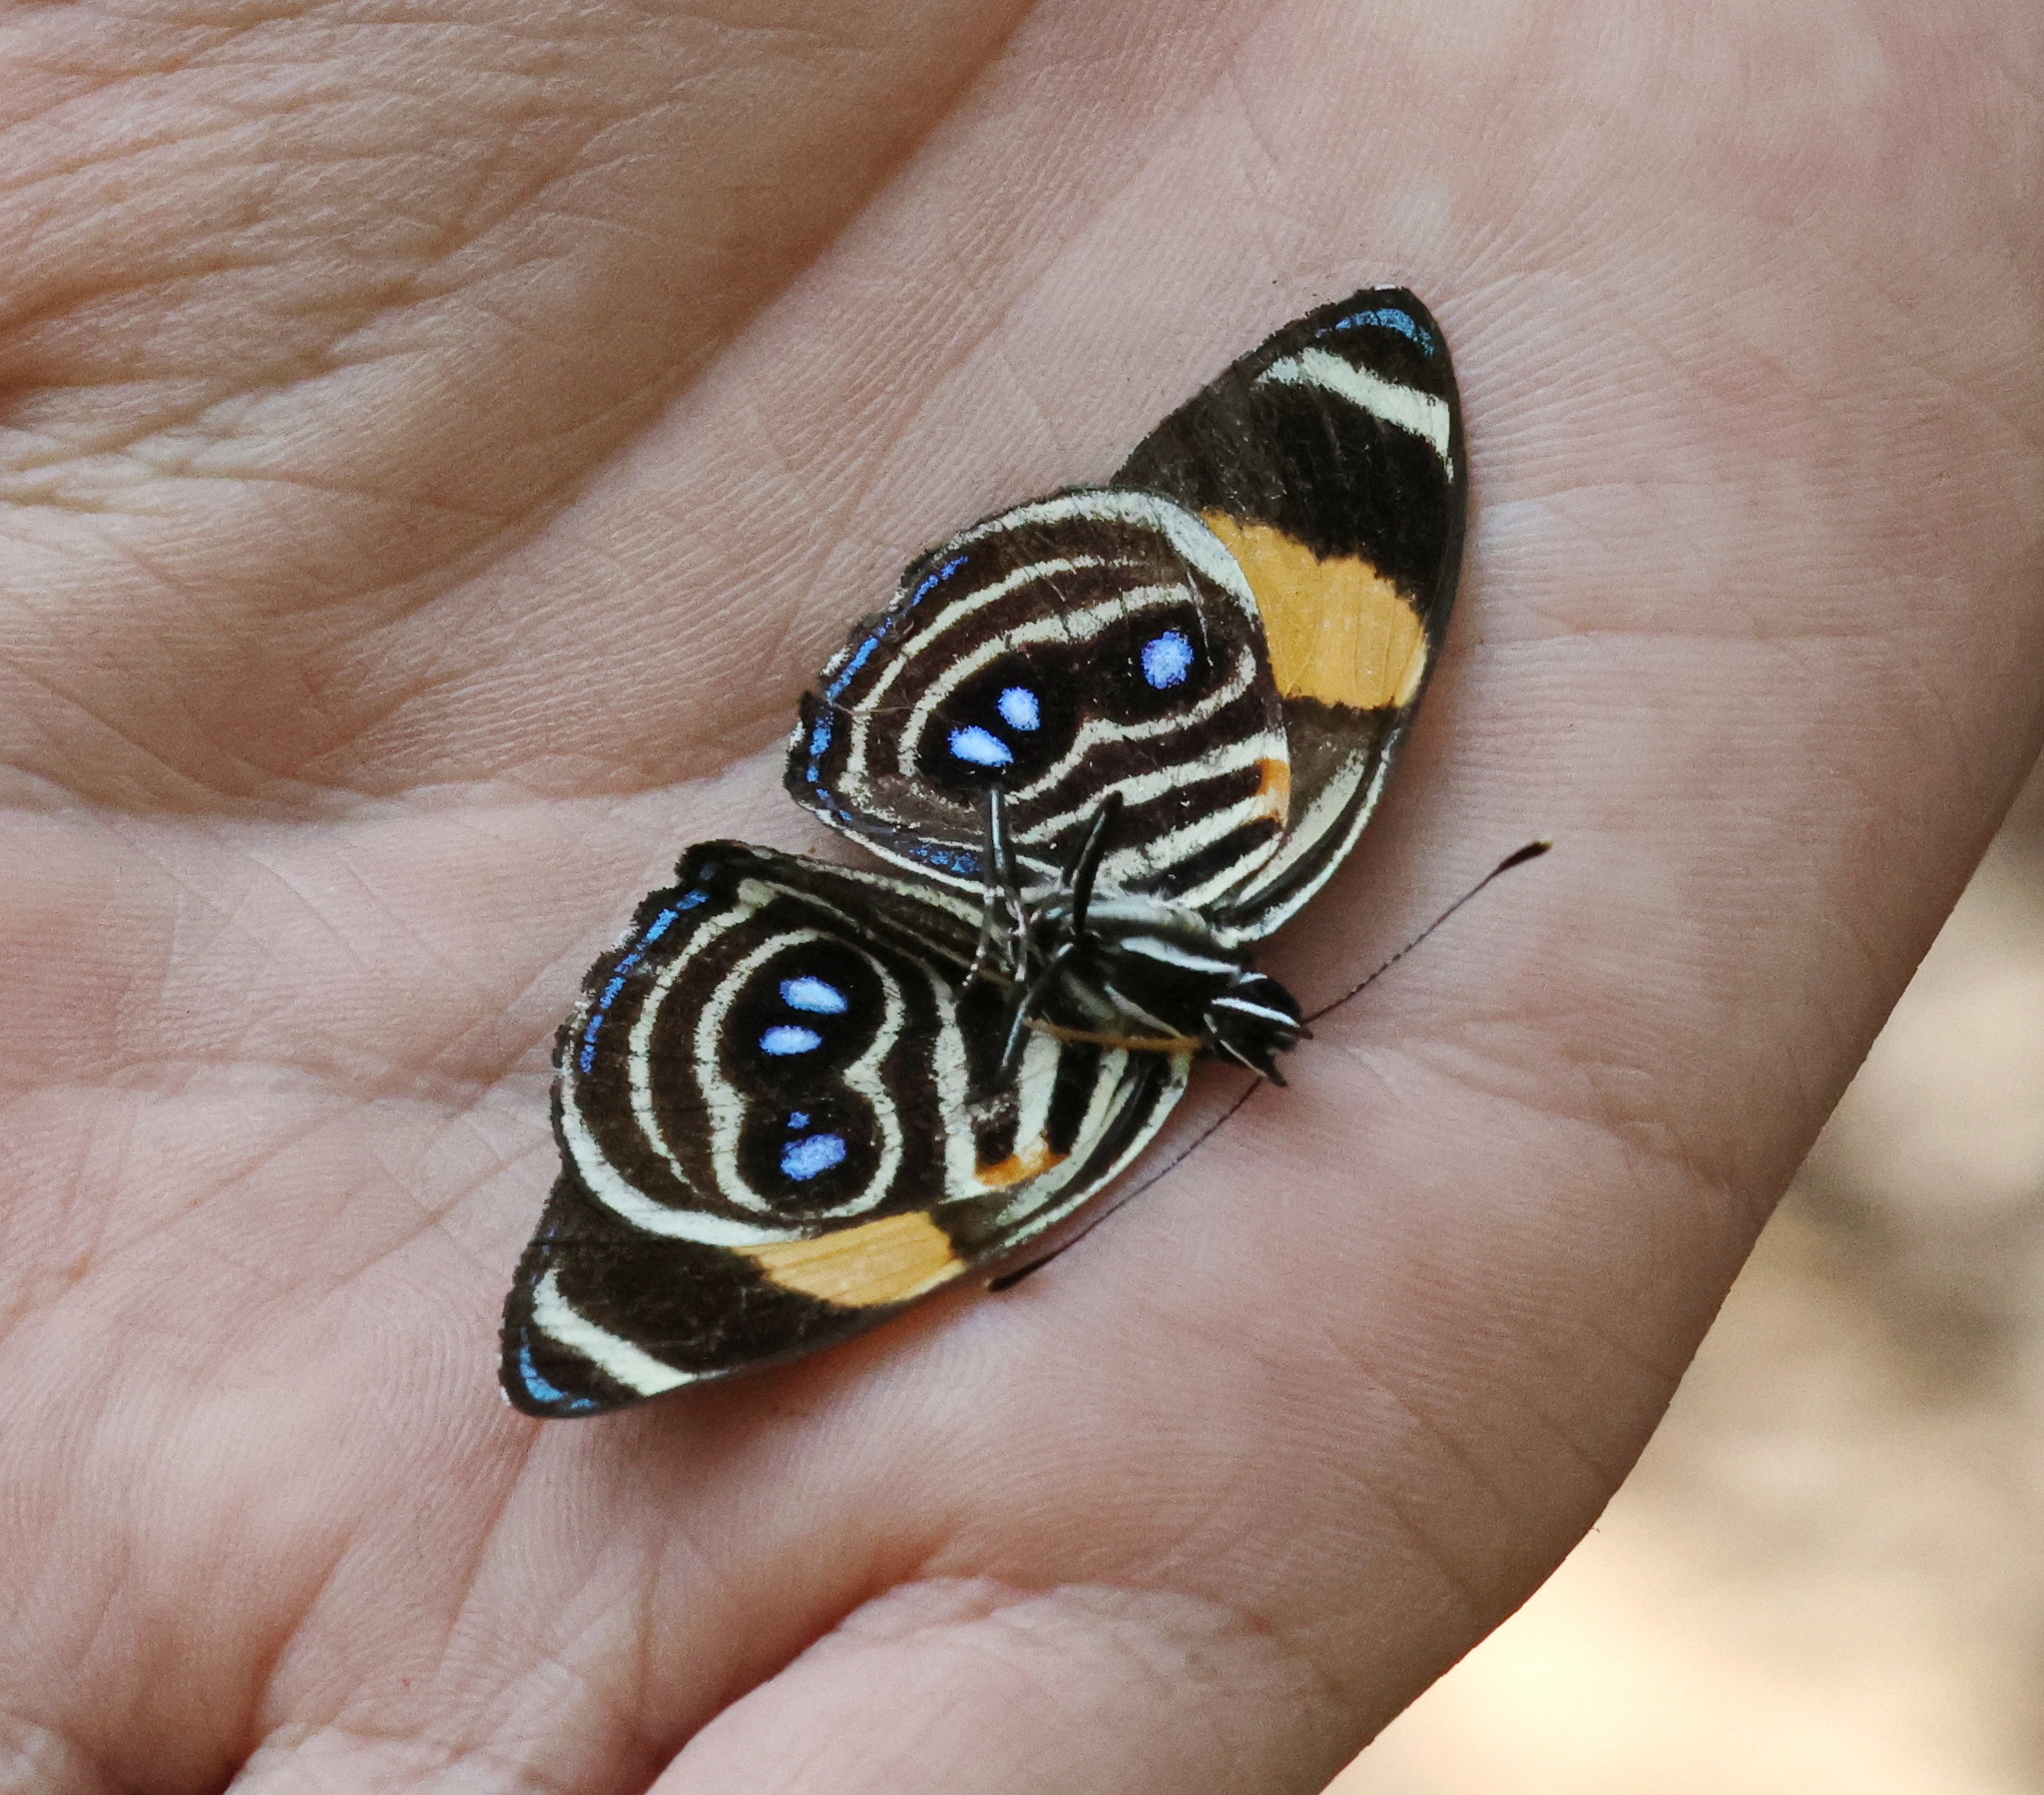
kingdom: Animalia
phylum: Arthropoda
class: Insecta
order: Lepidoptera
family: Nymphalidae
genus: Catagramma
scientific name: Catagramma tolima
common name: Blue-and-orange eighty-eight
